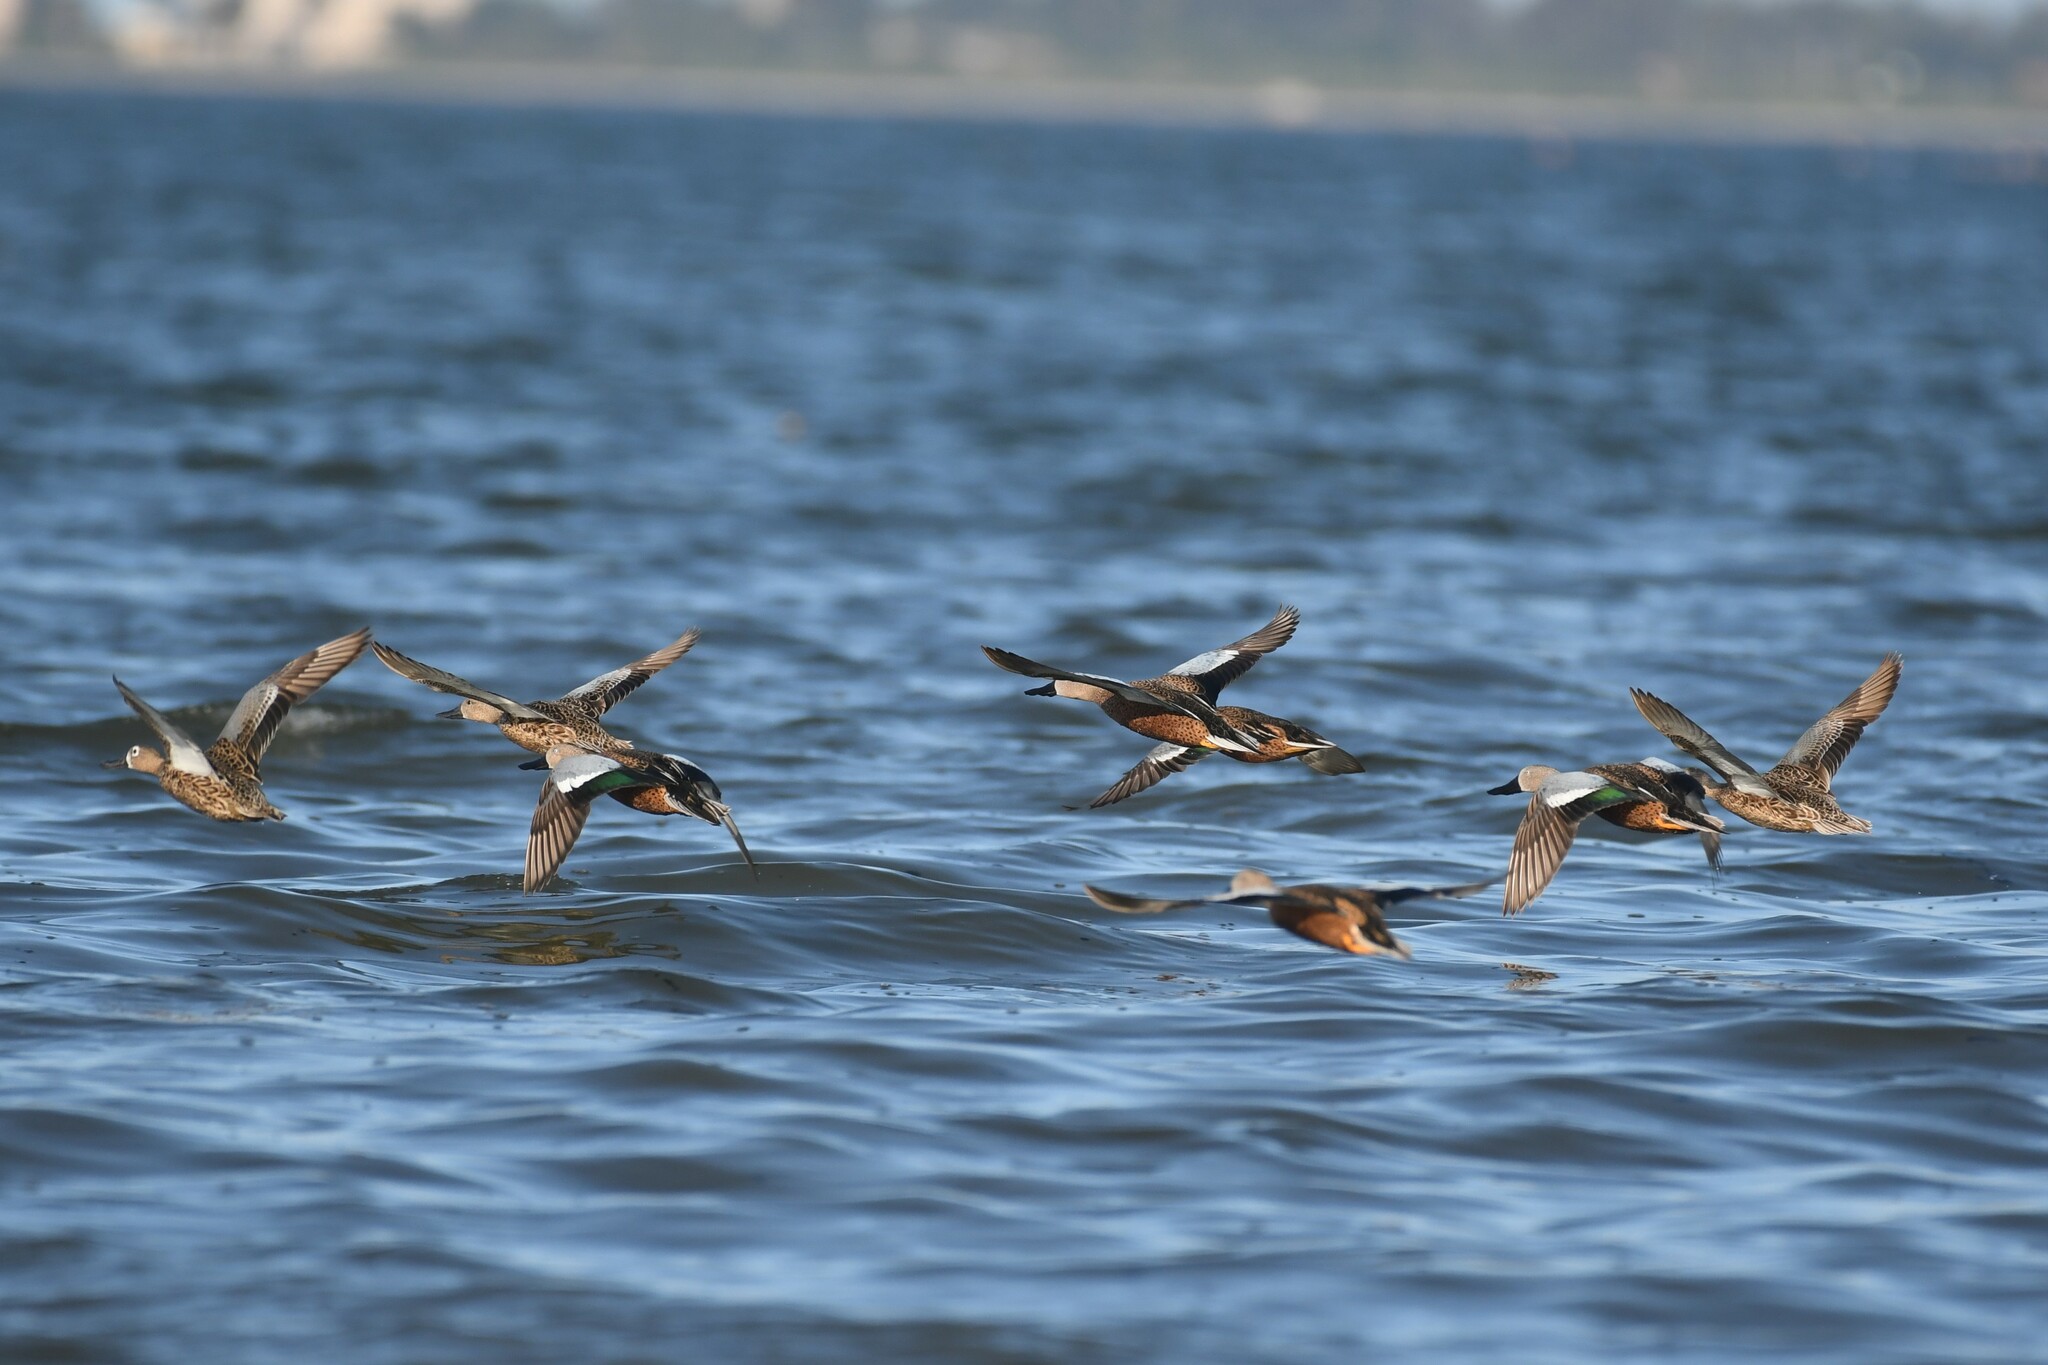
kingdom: Animalia
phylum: Chordata
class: Aves
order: Anseriformes
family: Anatidae
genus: Spatula
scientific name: Spatula platalea
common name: Red shoveler
